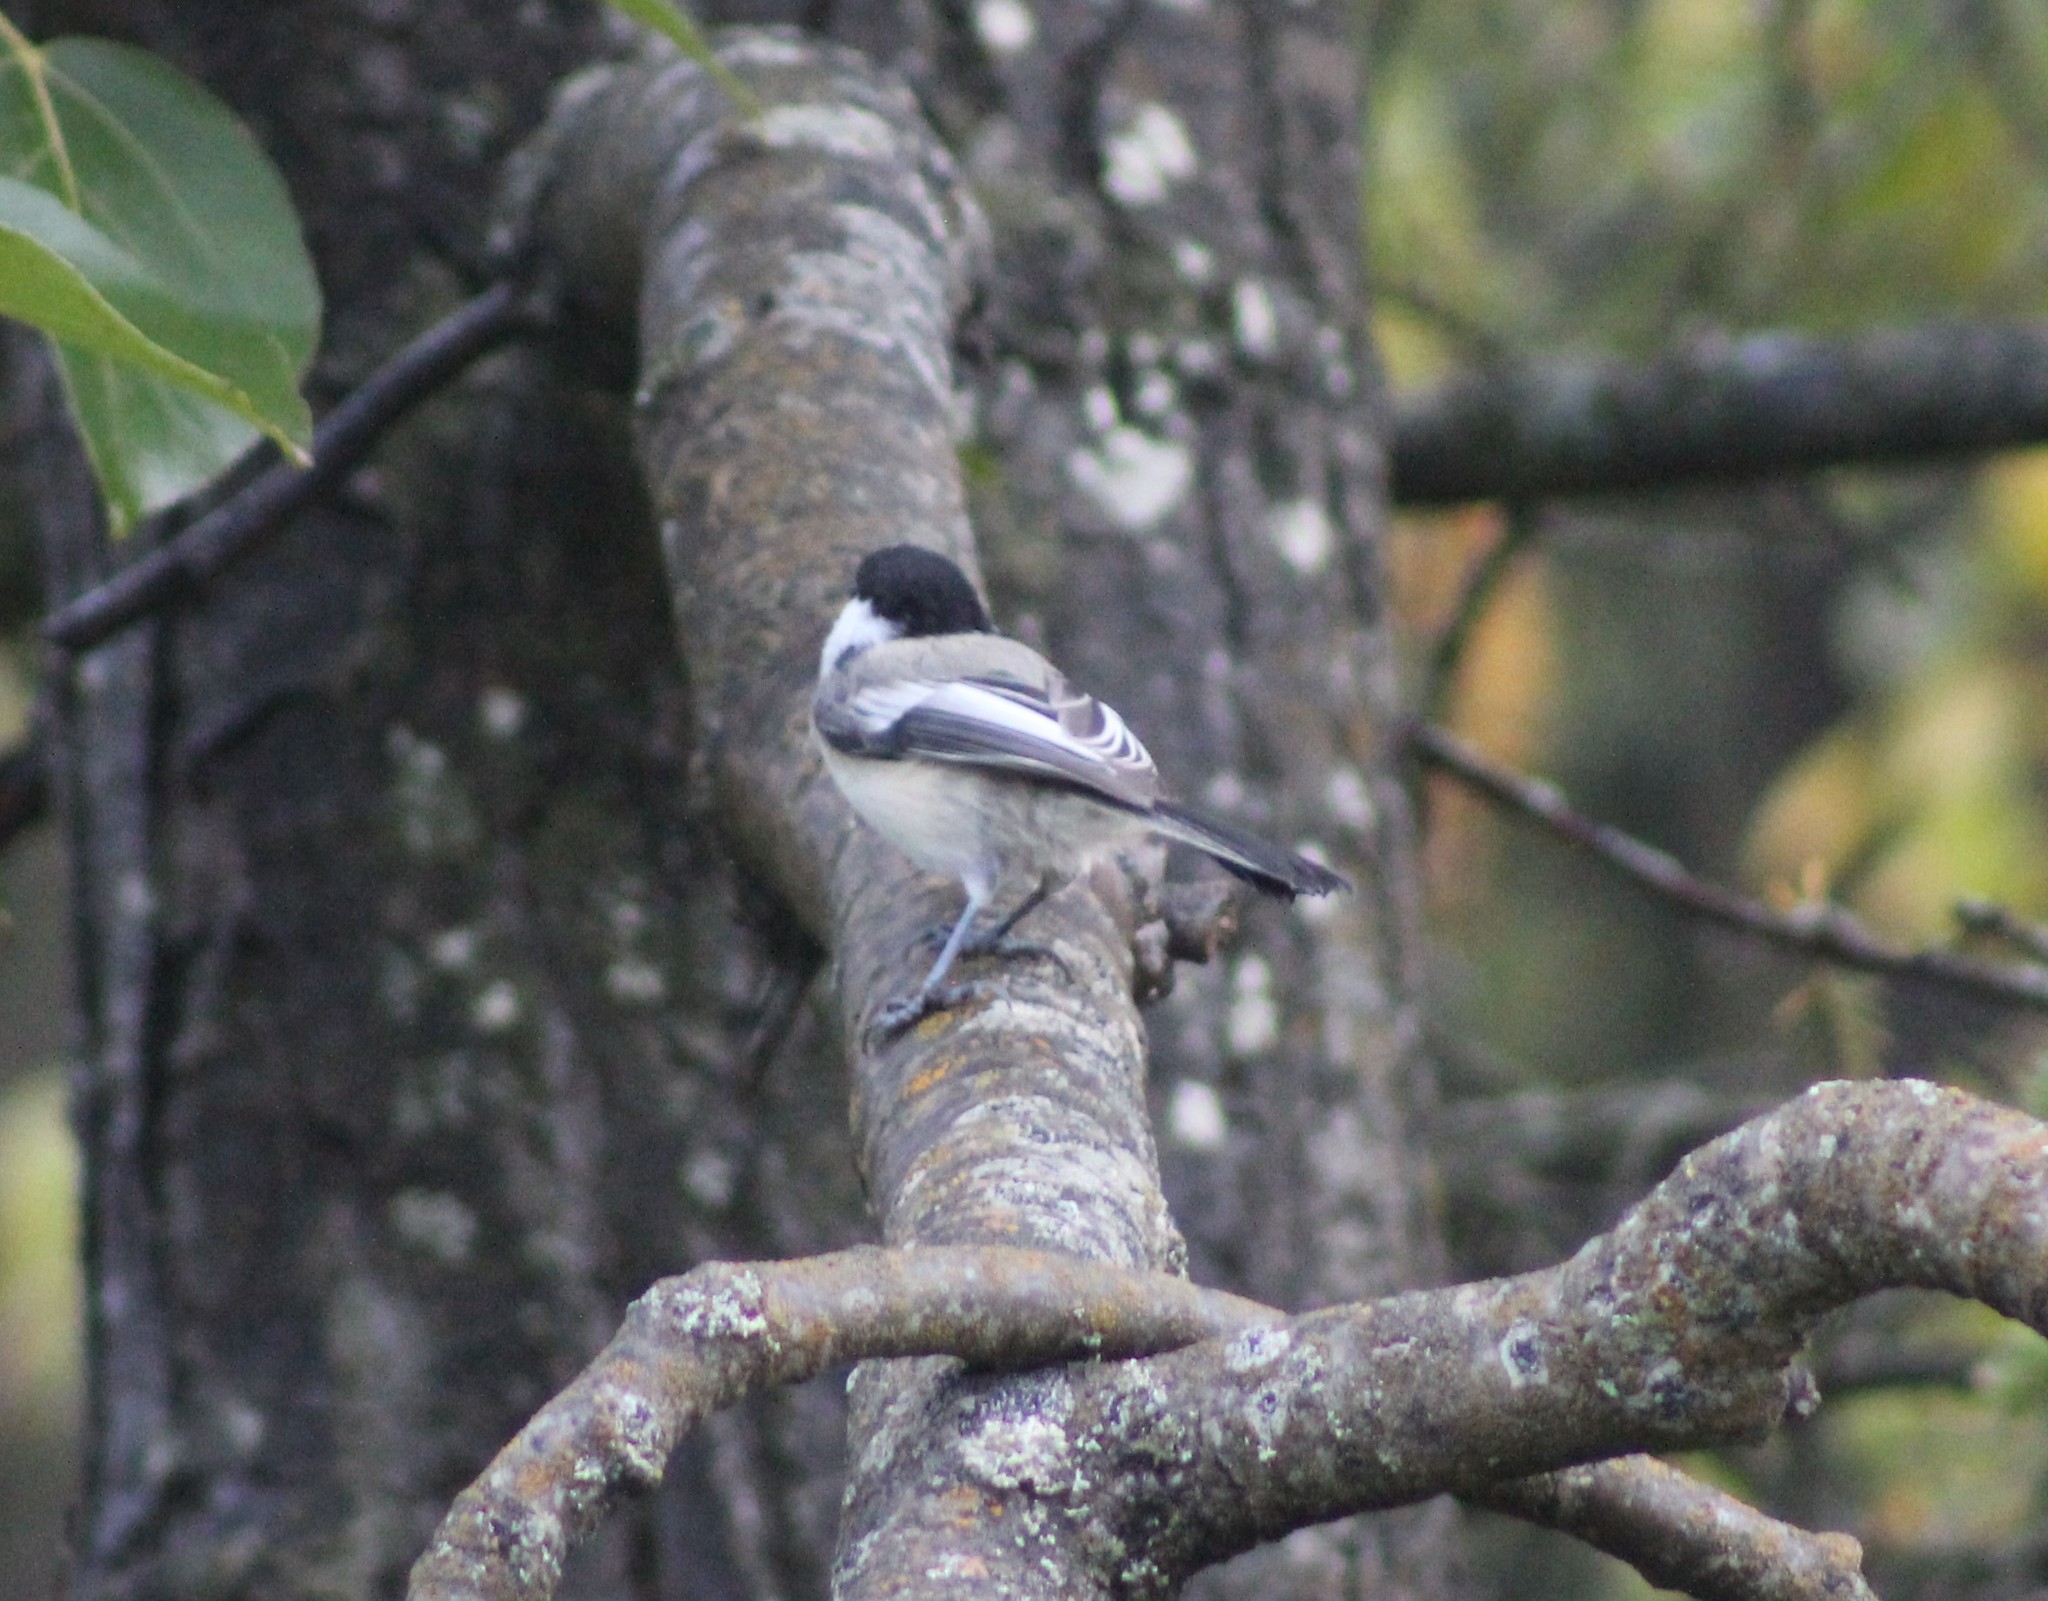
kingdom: Animalia
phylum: Chordata
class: Aves
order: Passeriformes
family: Paridae
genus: Poecile
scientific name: Poecile atricapillus
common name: Black-capped chickadee
